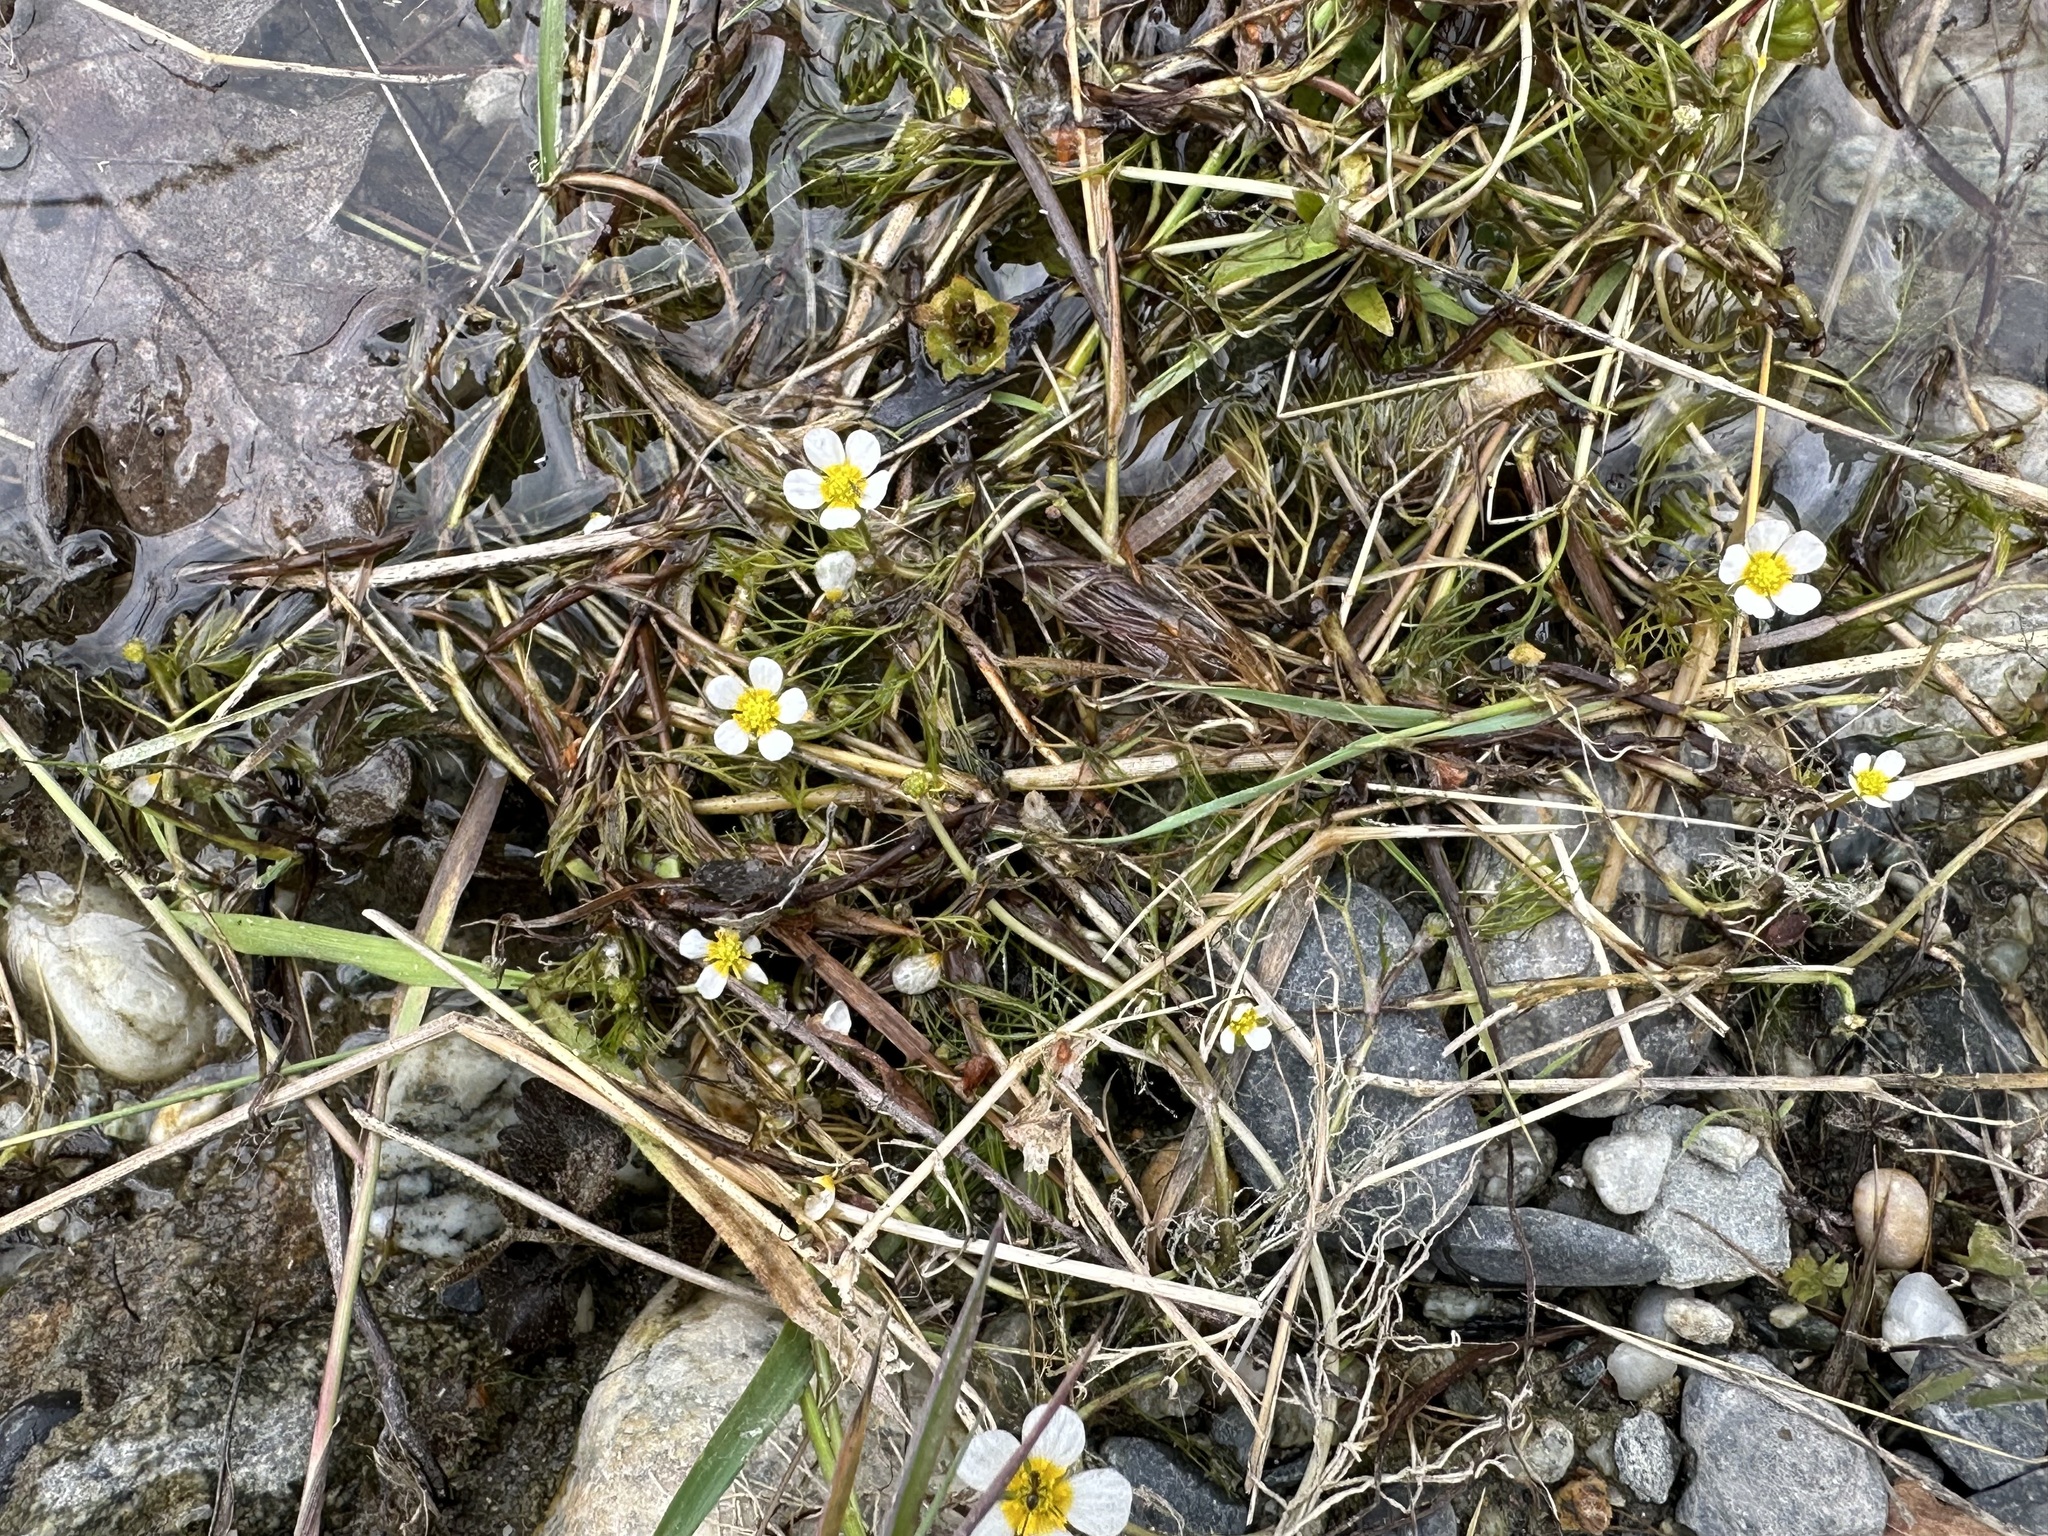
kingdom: Plantae
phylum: Tracheophyta
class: Magnoliopsida
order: Ranunculales
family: Ranunculaceae
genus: Ranunculus
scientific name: Ranunculus trichophyllus
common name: Thread-leaved water-crowfoot
